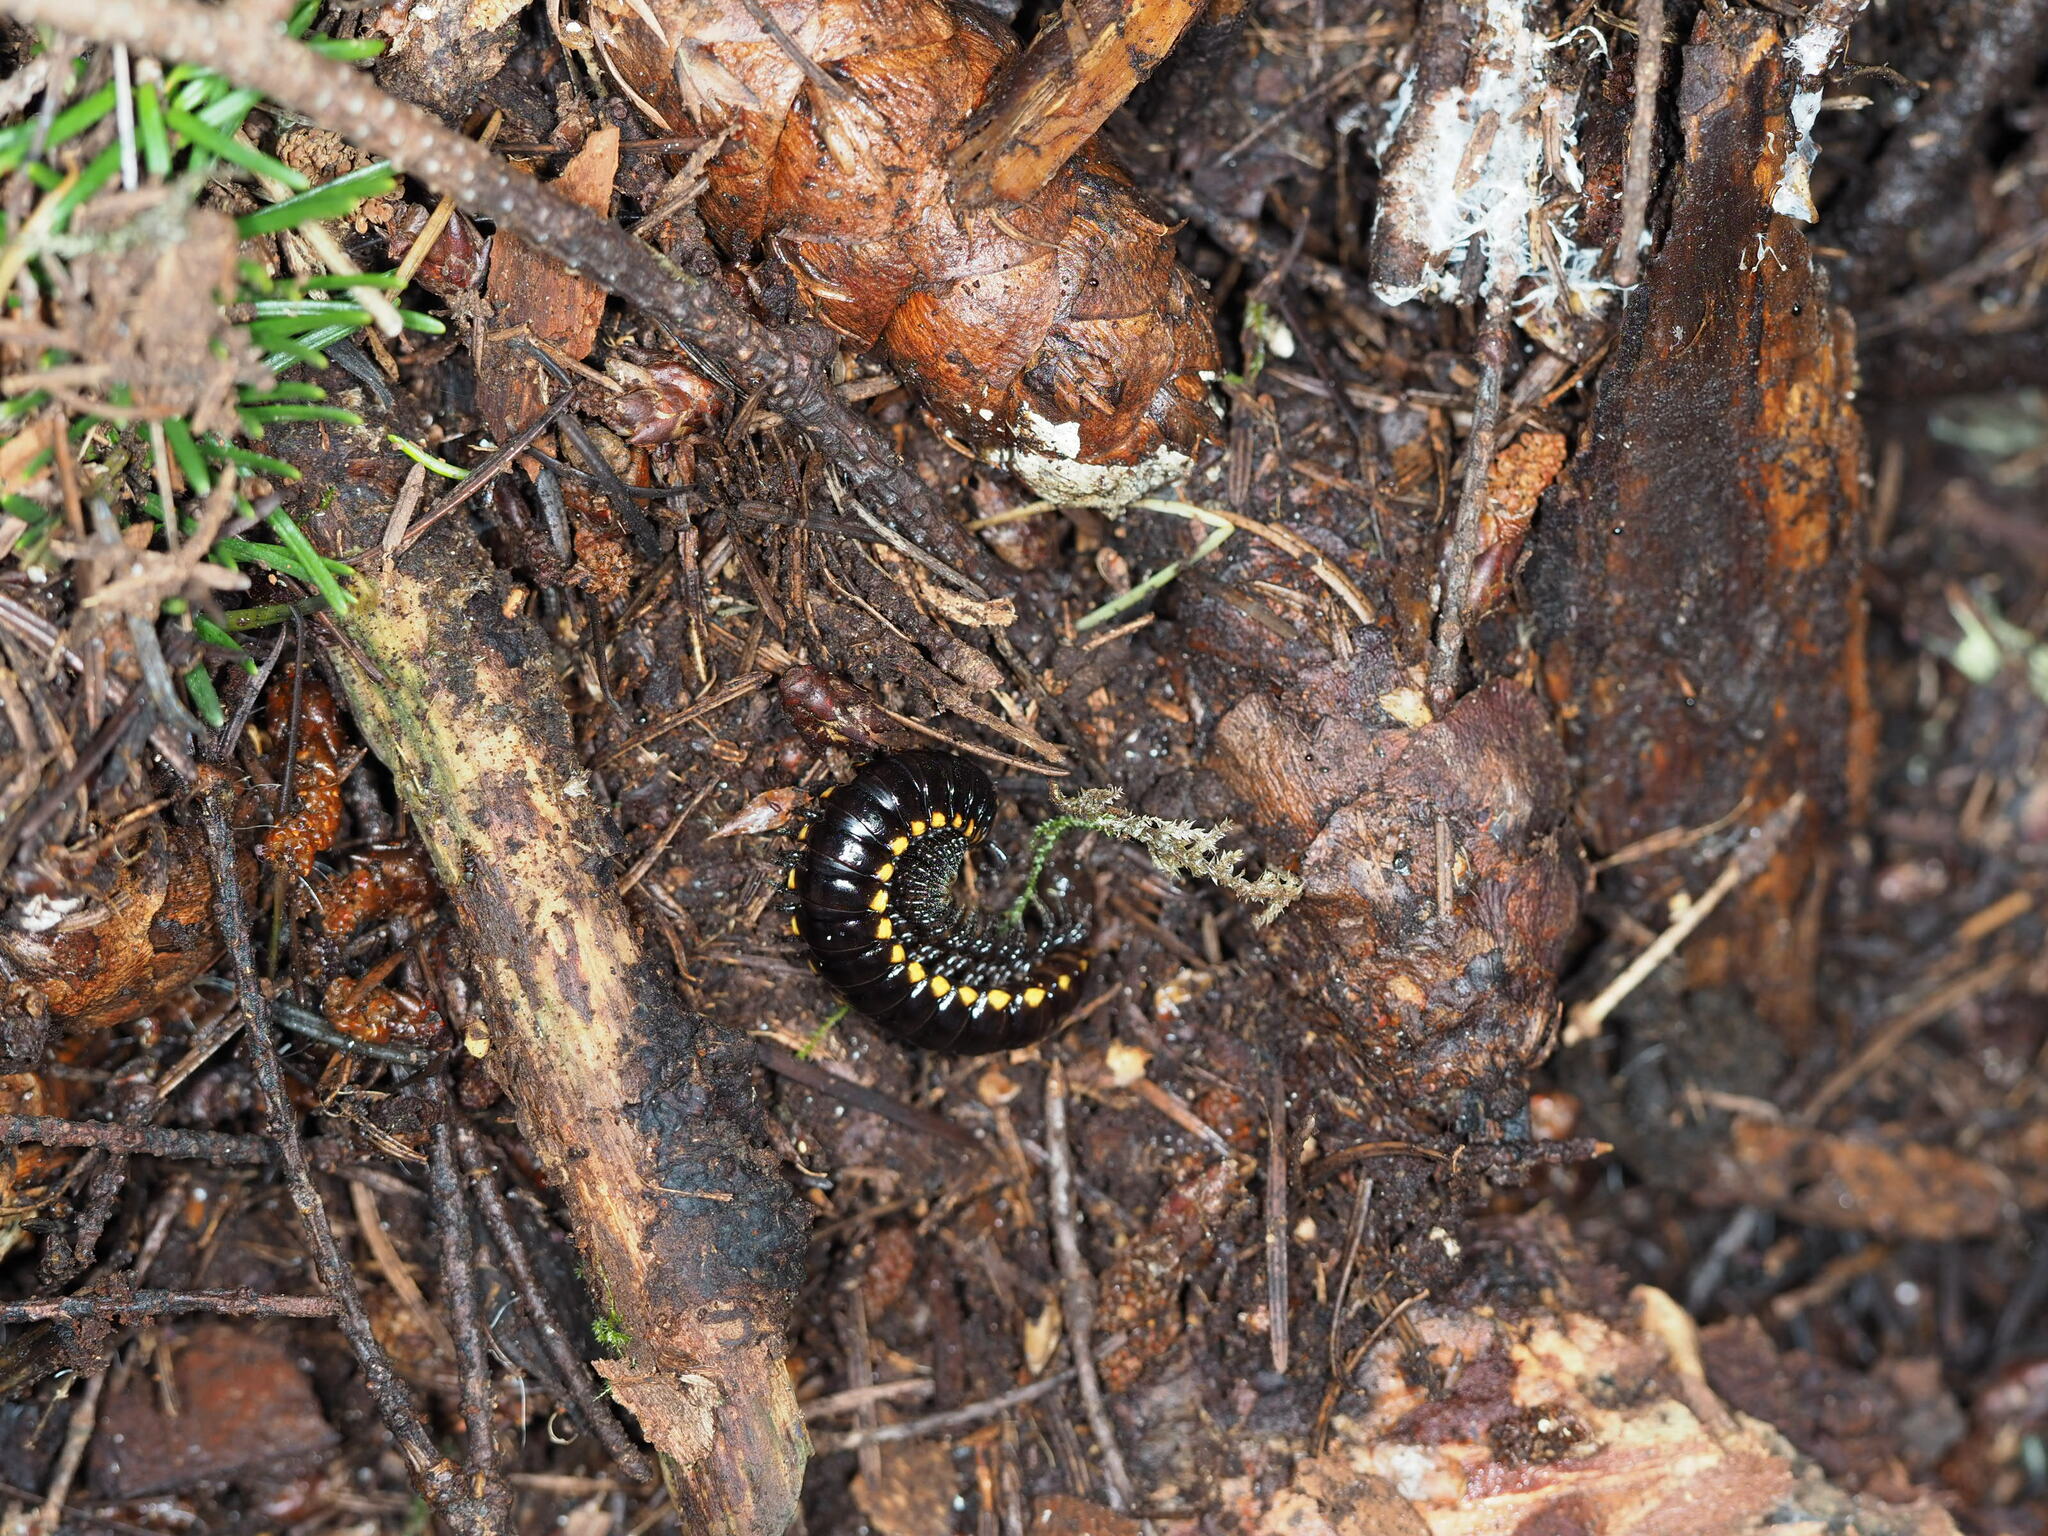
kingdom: Animalia
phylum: Arthropoda
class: Diplopoda
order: Polydesmida
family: Xystodesmidae
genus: Harpaphe
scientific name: Harpaphe haydeniana
